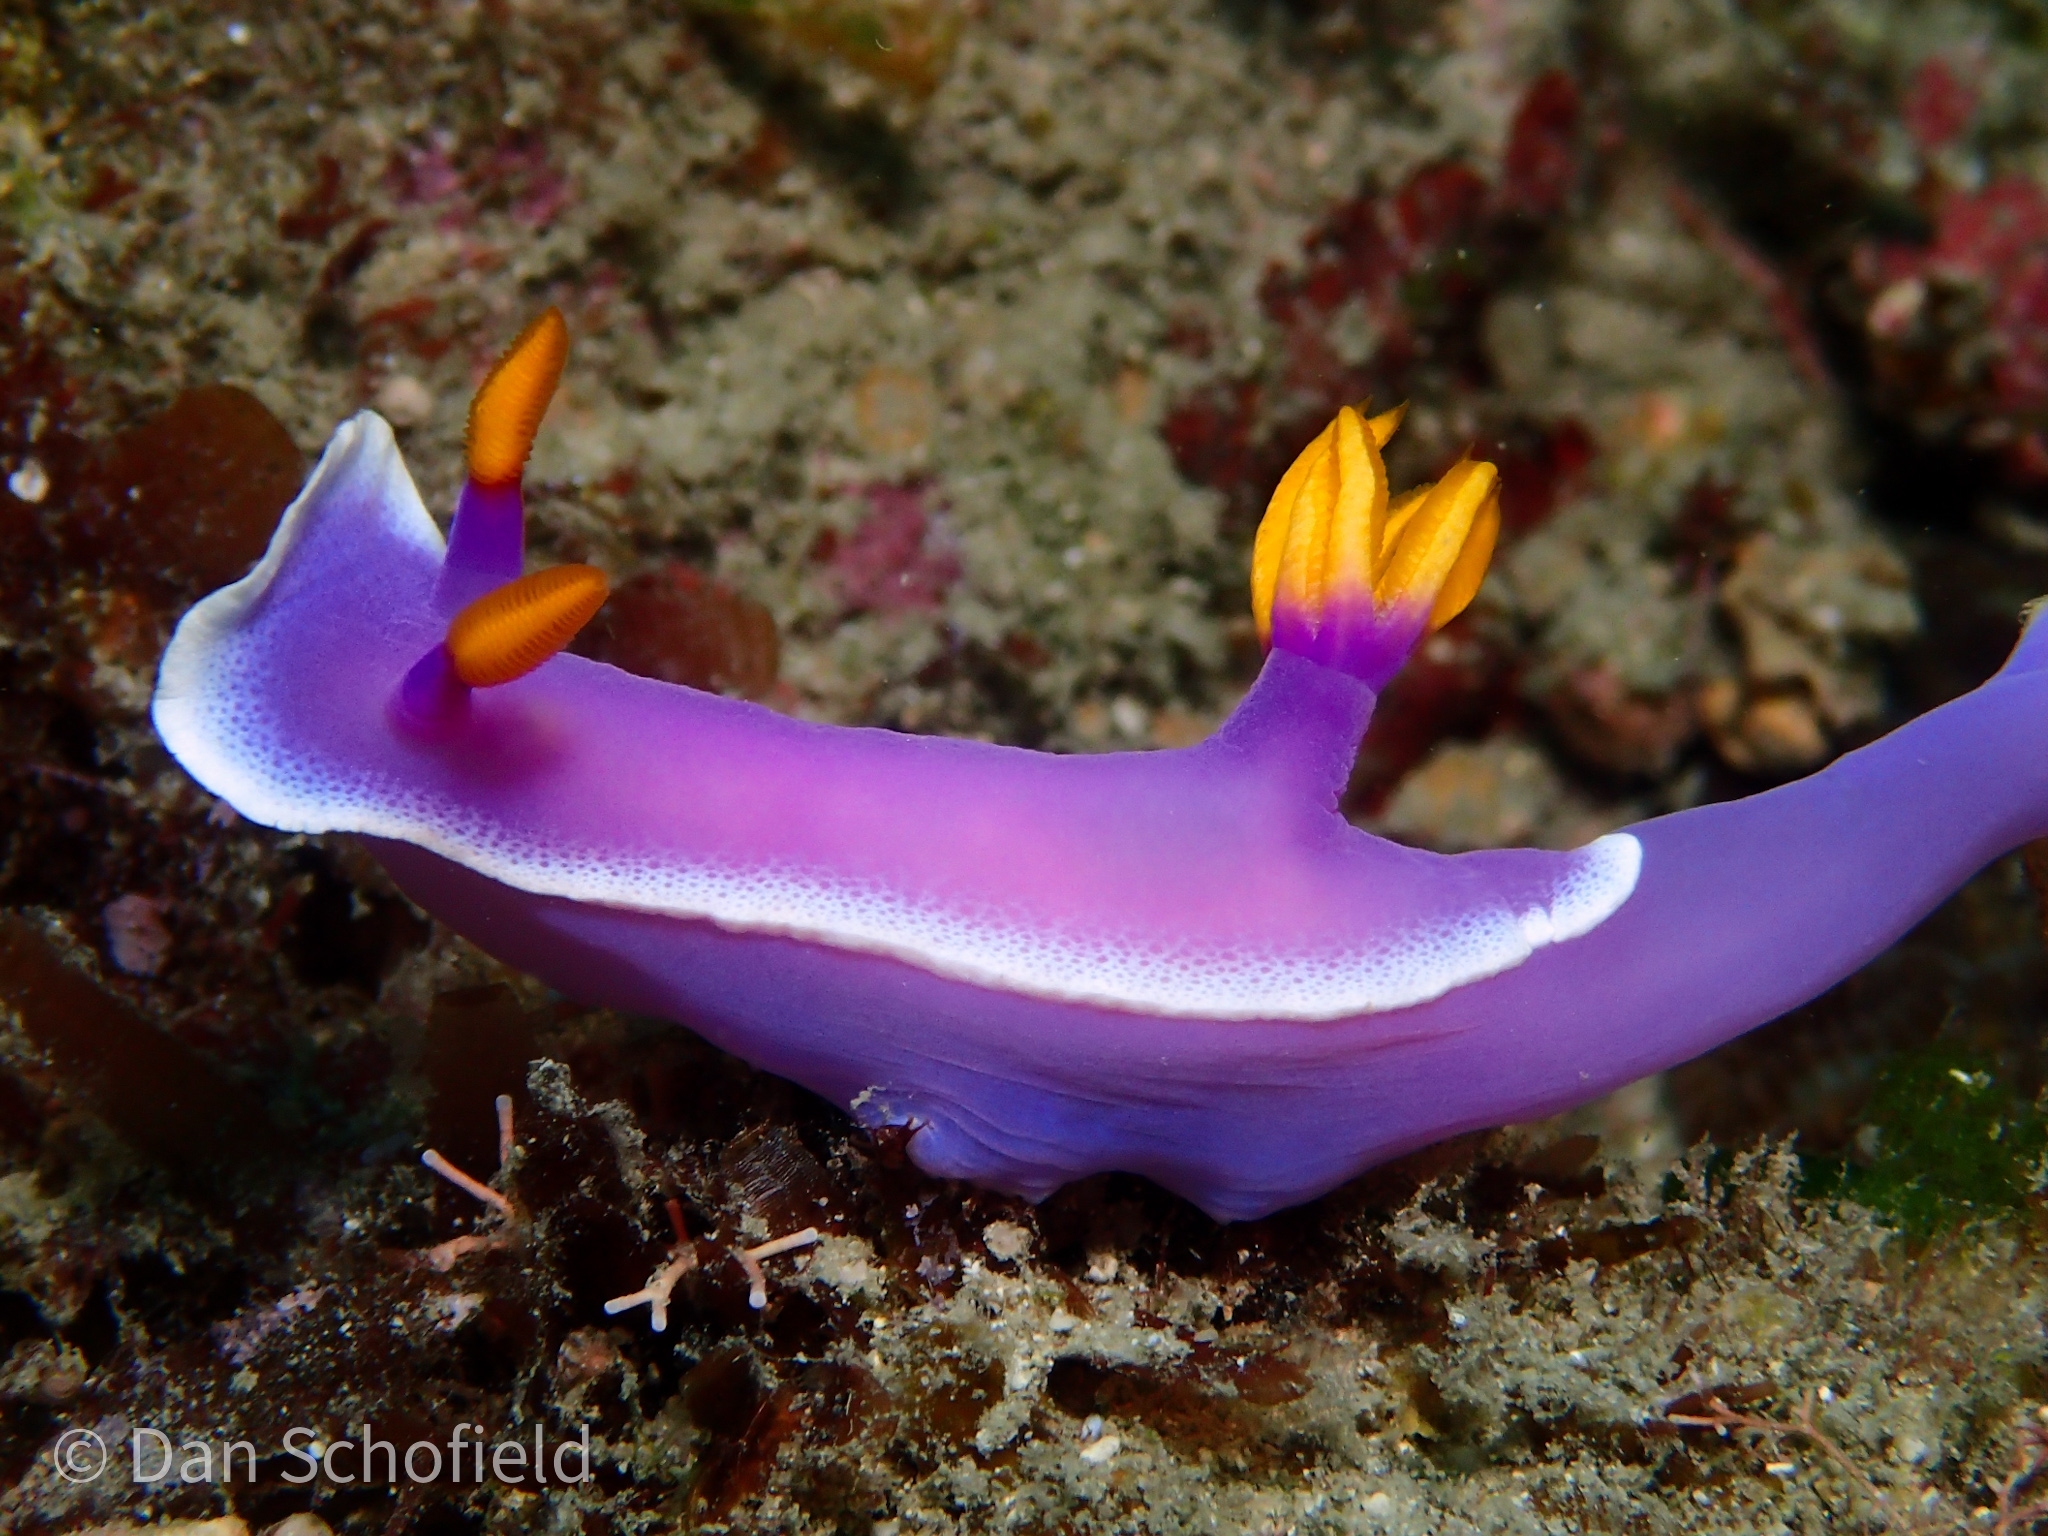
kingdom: Animalia
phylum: Mollusca
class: Gastropoda
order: Nudibranchia
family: Chromodorididae
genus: Hypselodoris
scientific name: Hypselodoris apolegma
